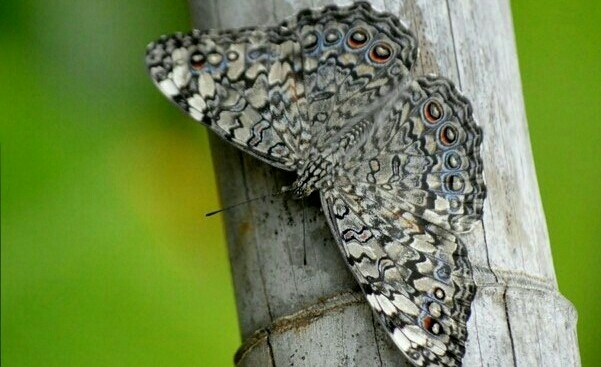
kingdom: Animalia
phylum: Arthropoda
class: Insecta
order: Lepidoptera
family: Nymphalidae
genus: Hamadryas
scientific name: Hamadryas februa
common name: Gray cracker
